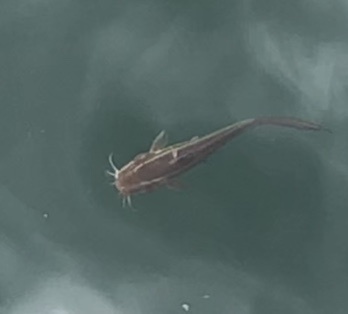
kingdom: Animalia
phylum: Chordata
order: Siluriformes
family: Plotosidae
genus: Plotosus
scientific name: Plotosus lineatus
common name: Striped eel catfish
